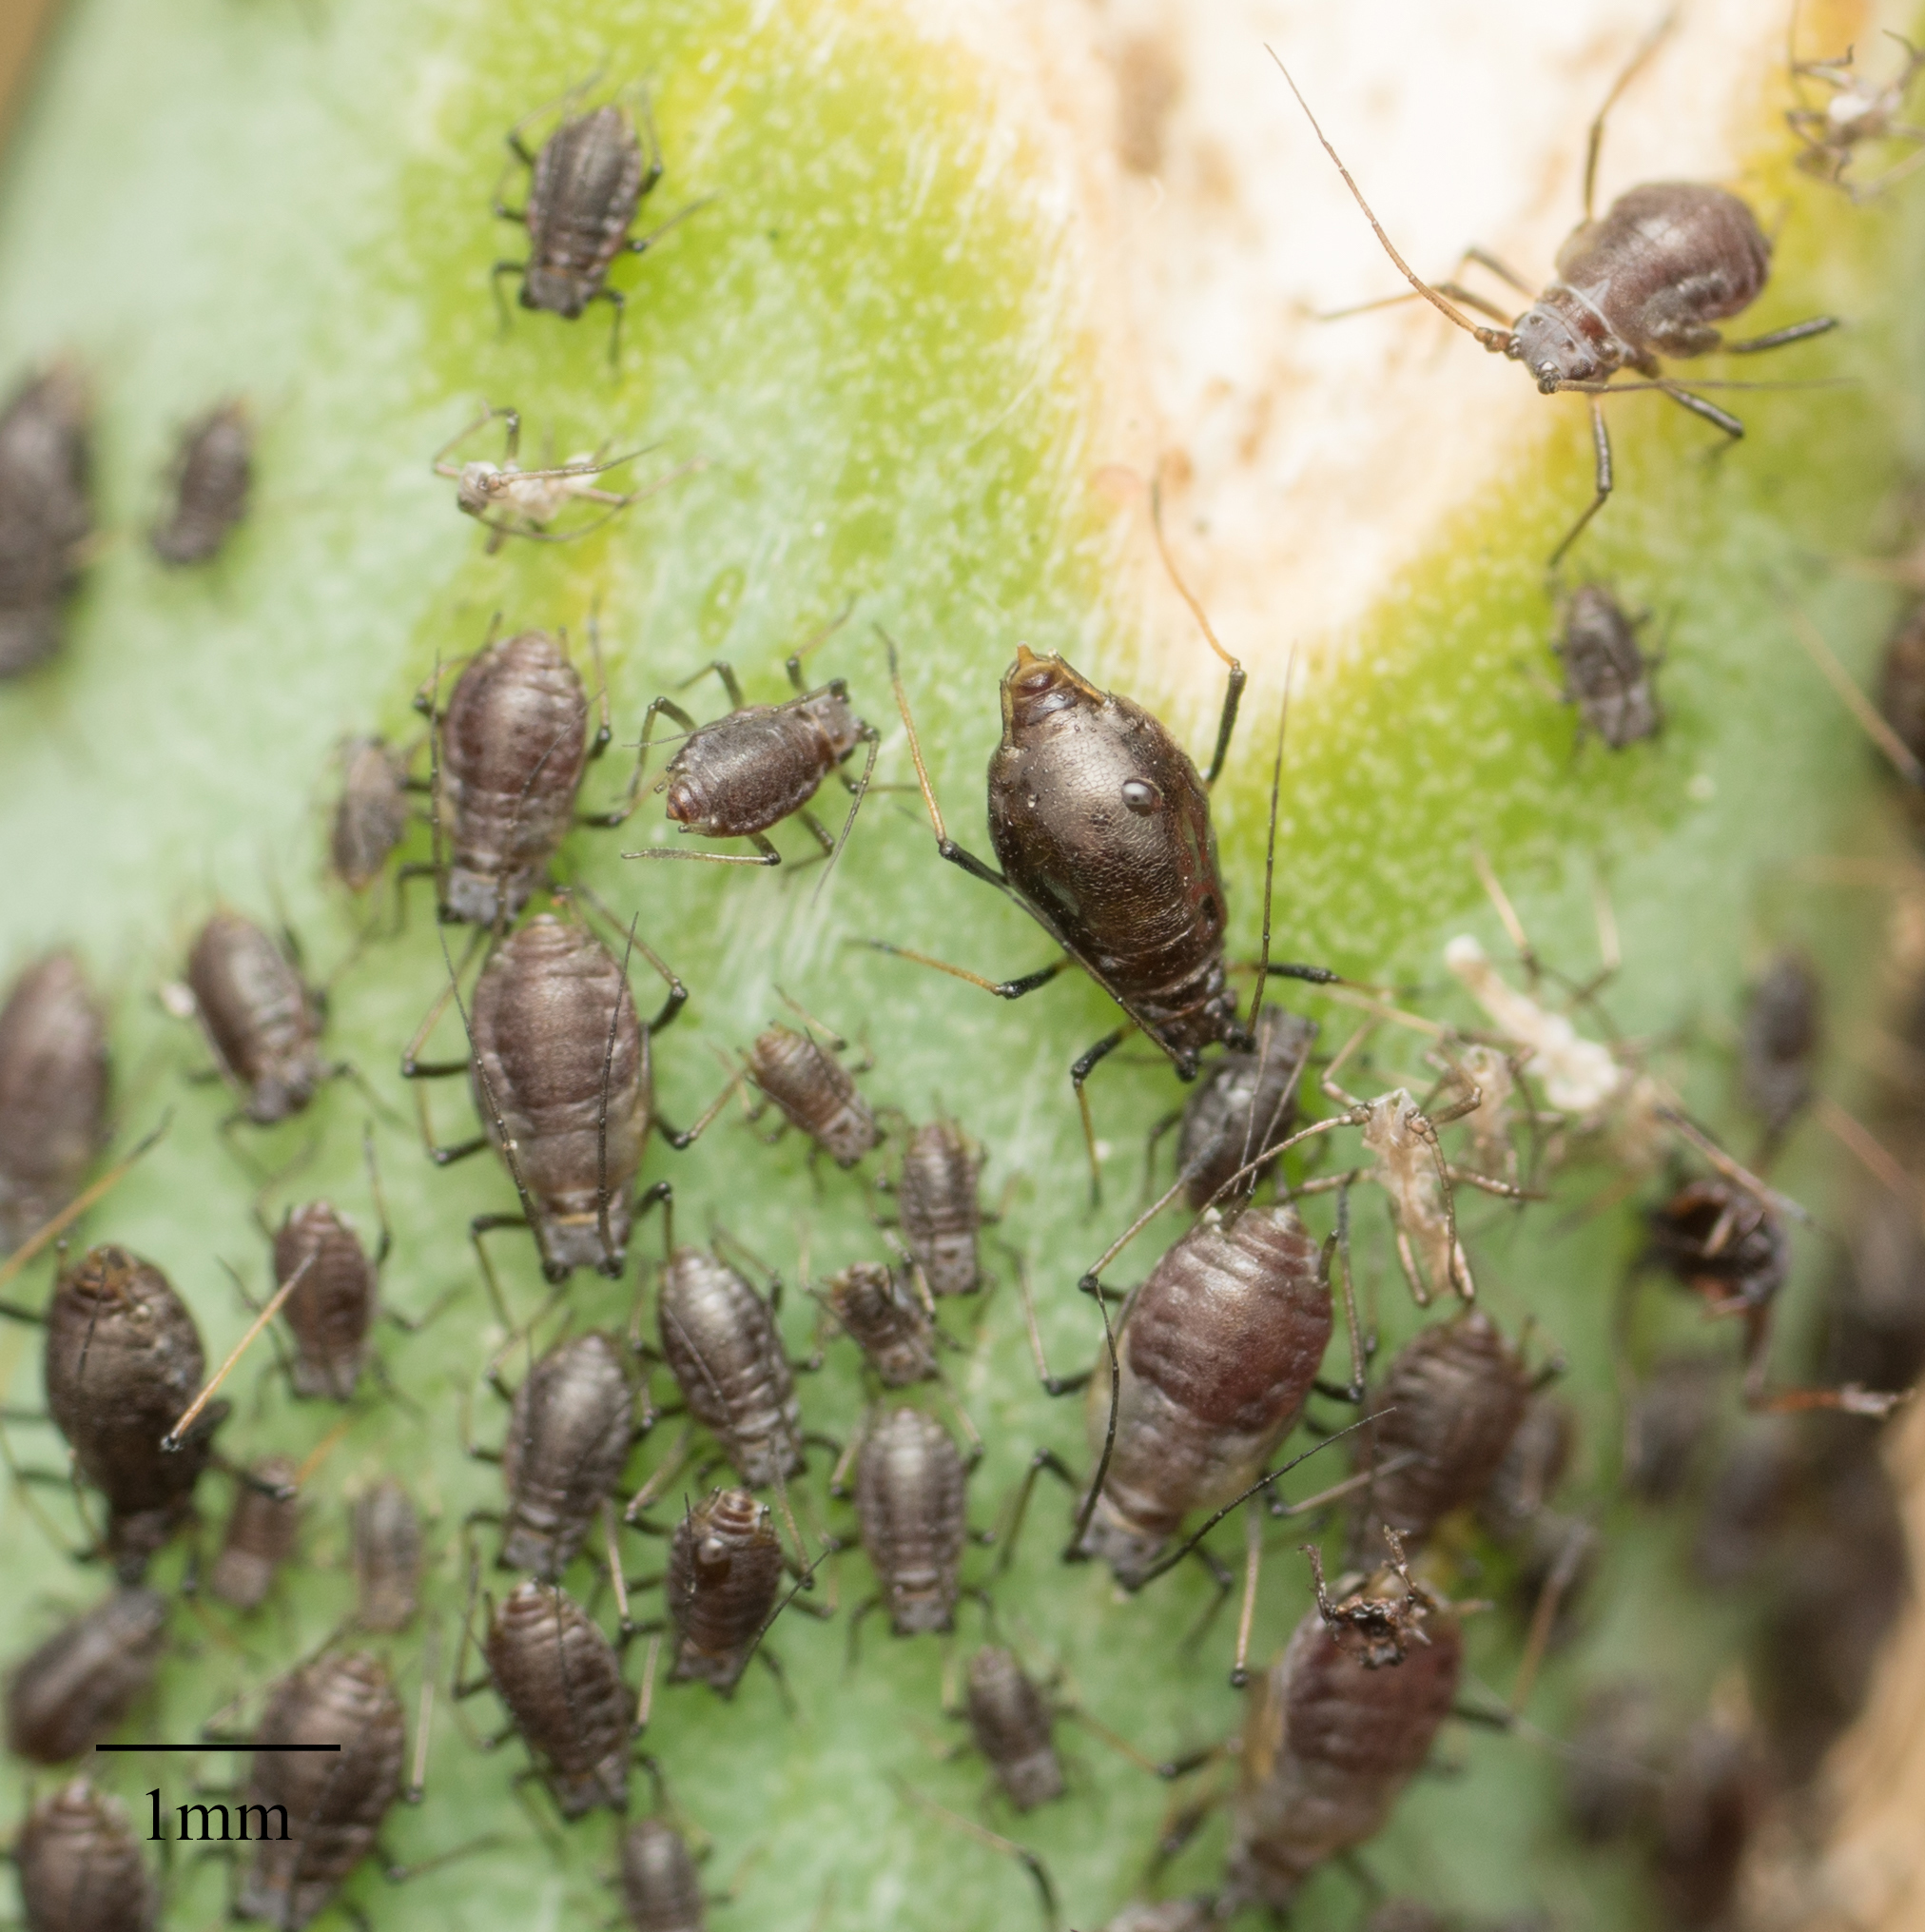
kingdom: Animalia
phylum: Arthropoda
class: Insecta
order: Hemiptera
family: Aphididae
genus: Neotoxoptera
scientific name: Neotoxoptera formosana
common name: Onion aphid
